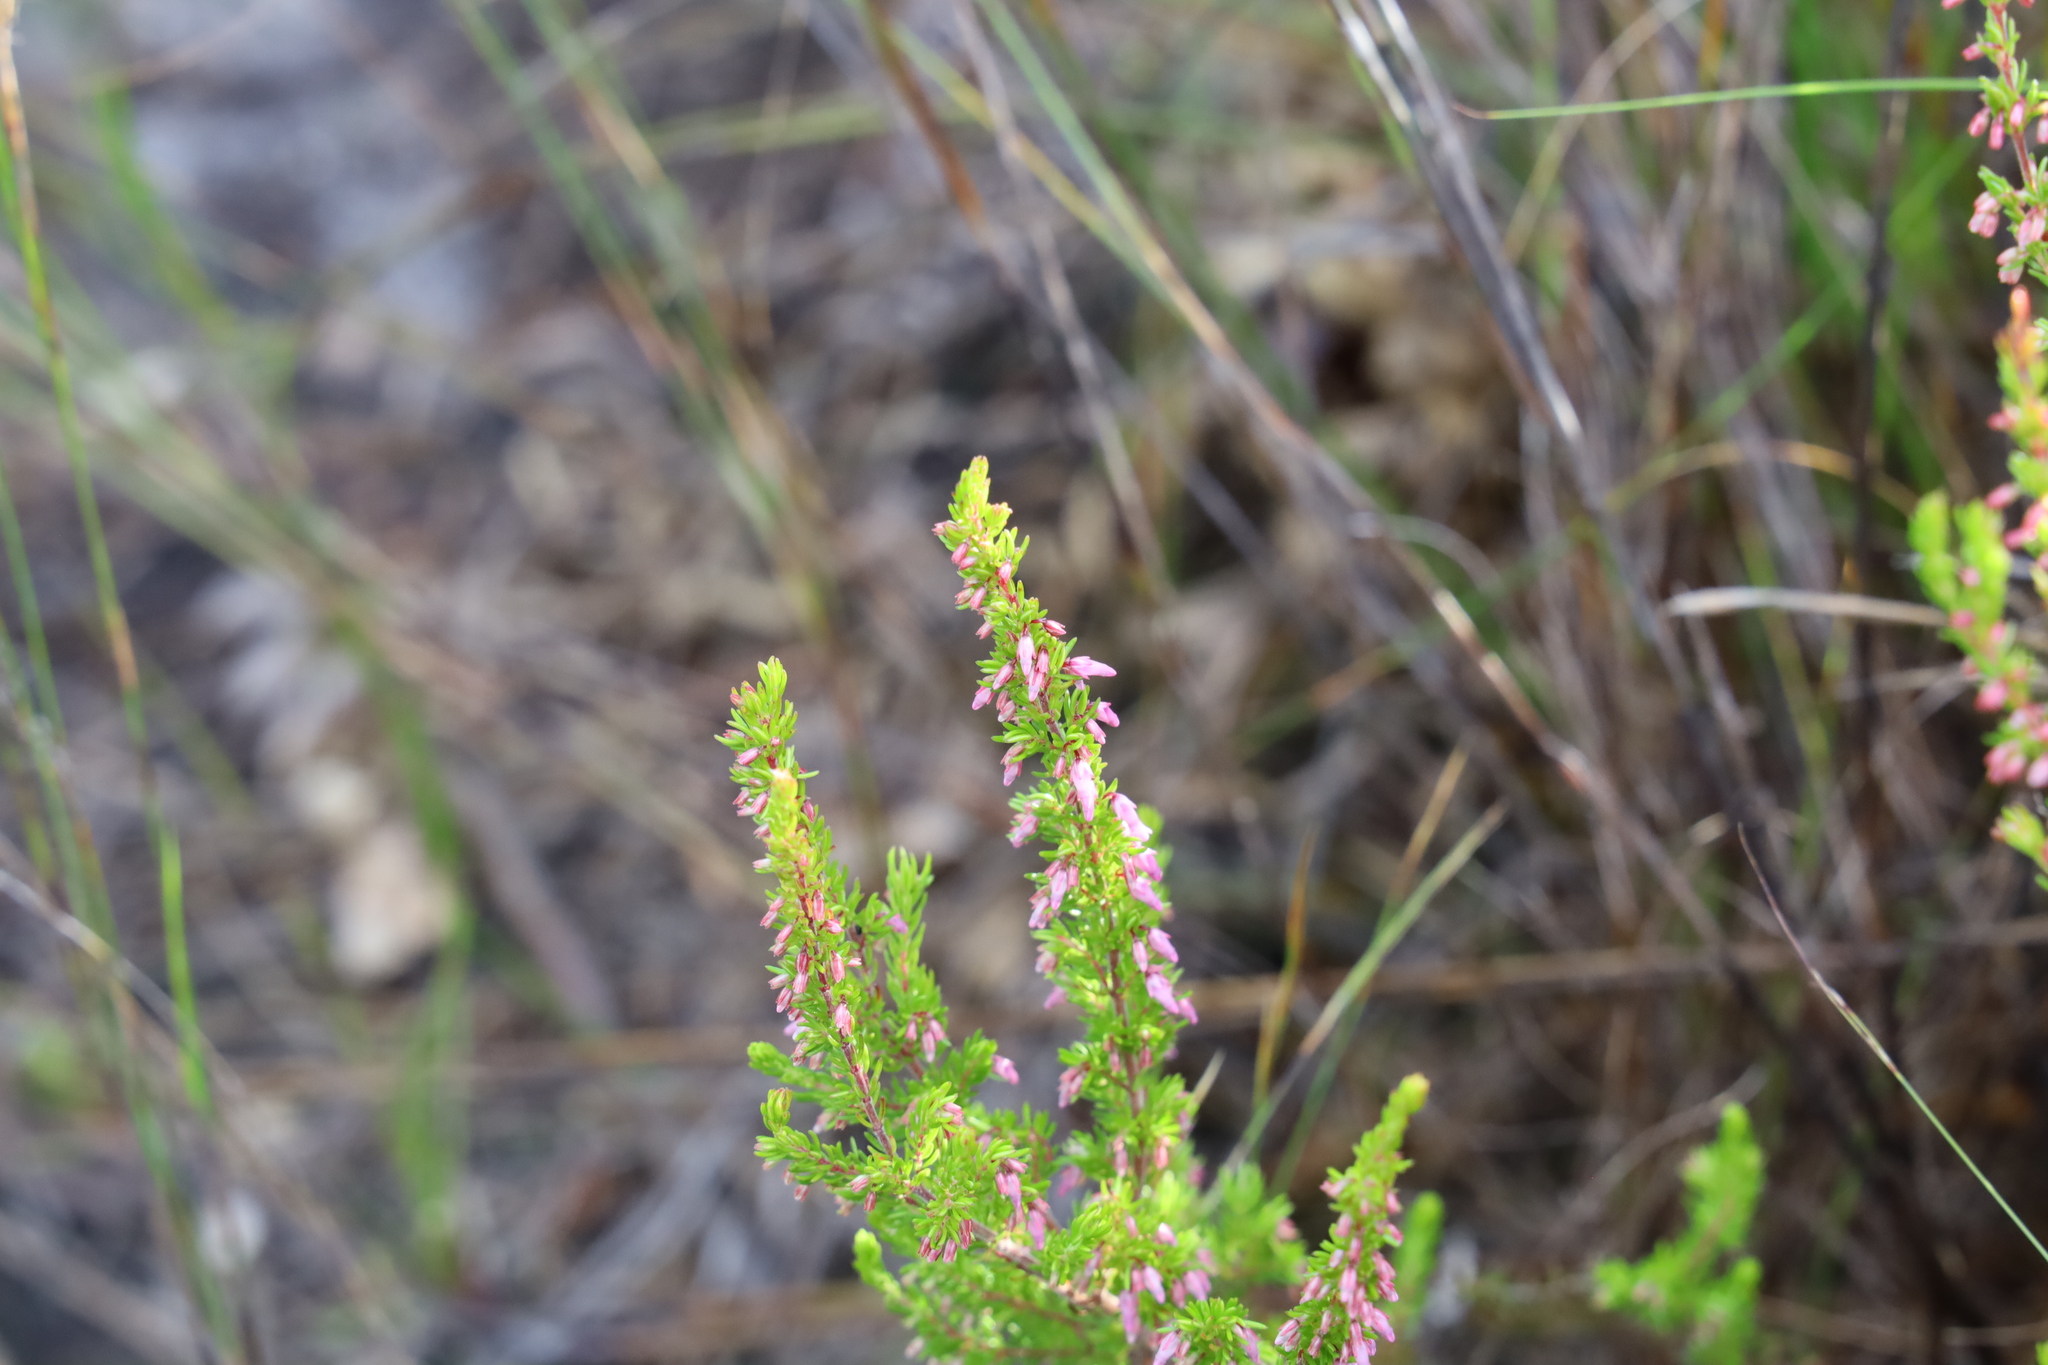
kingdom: Plantae
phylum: Tracheophyta
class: Magnoliopsida
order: Ericales
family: Ericaceae
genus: Erica
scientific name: Erica intervallaris
